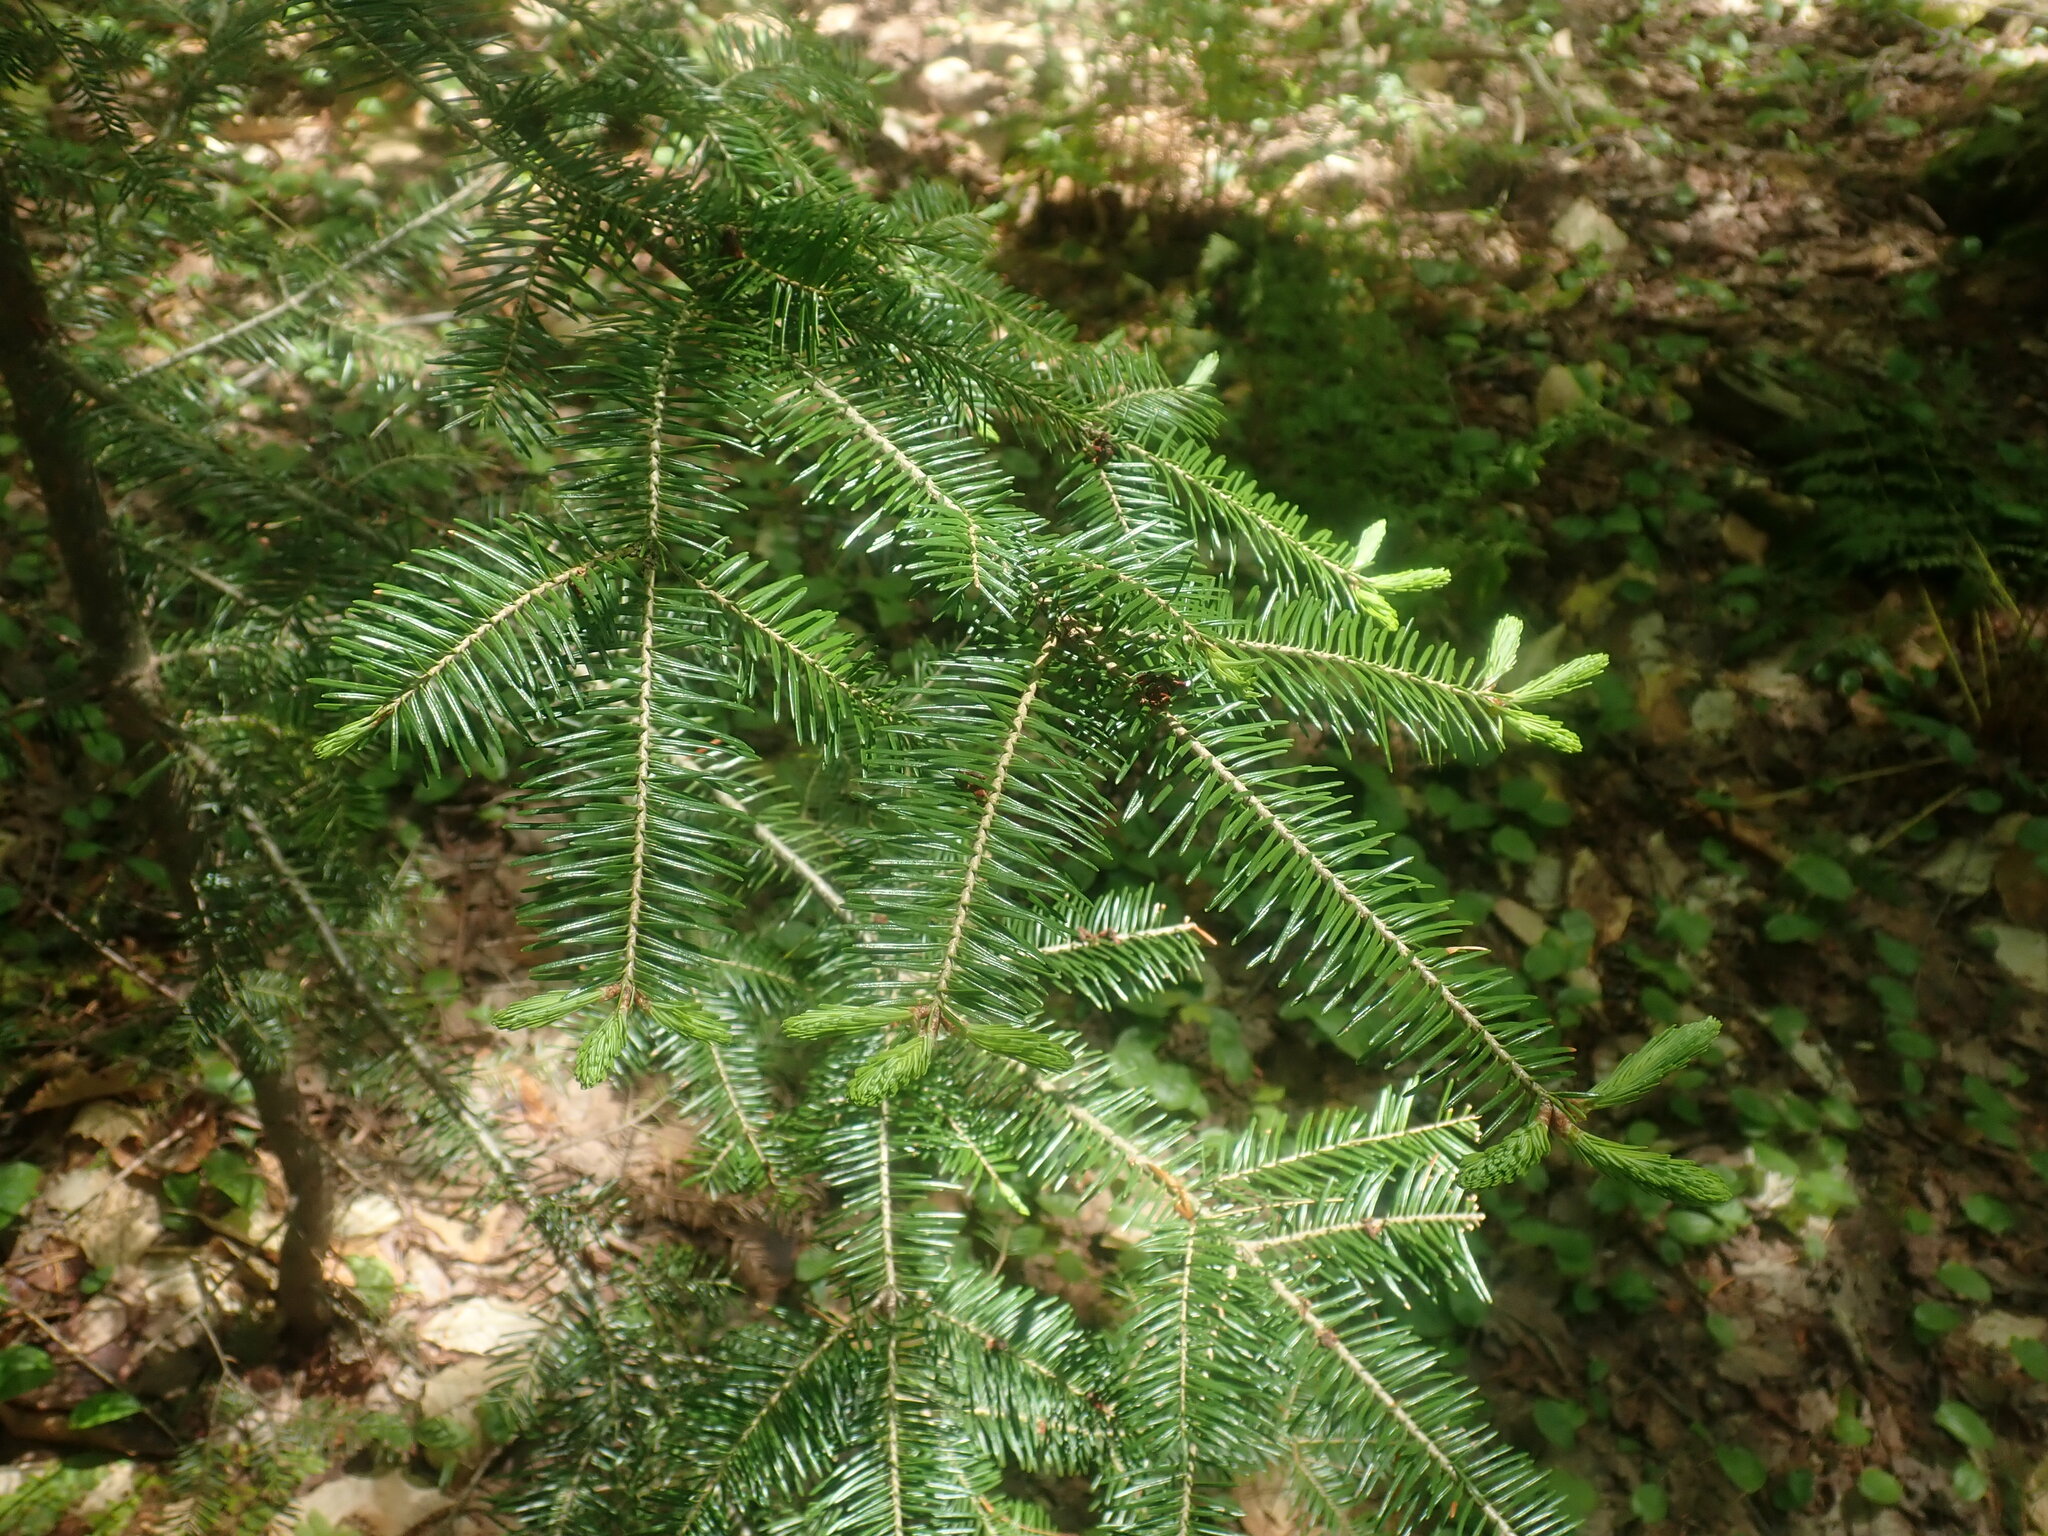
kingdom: Plantae
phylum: Tracheophyta
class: Pinopsida
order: Pinales
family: Pinaceae
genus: Abies
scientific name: Abies balsamea
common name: Balsam fir
